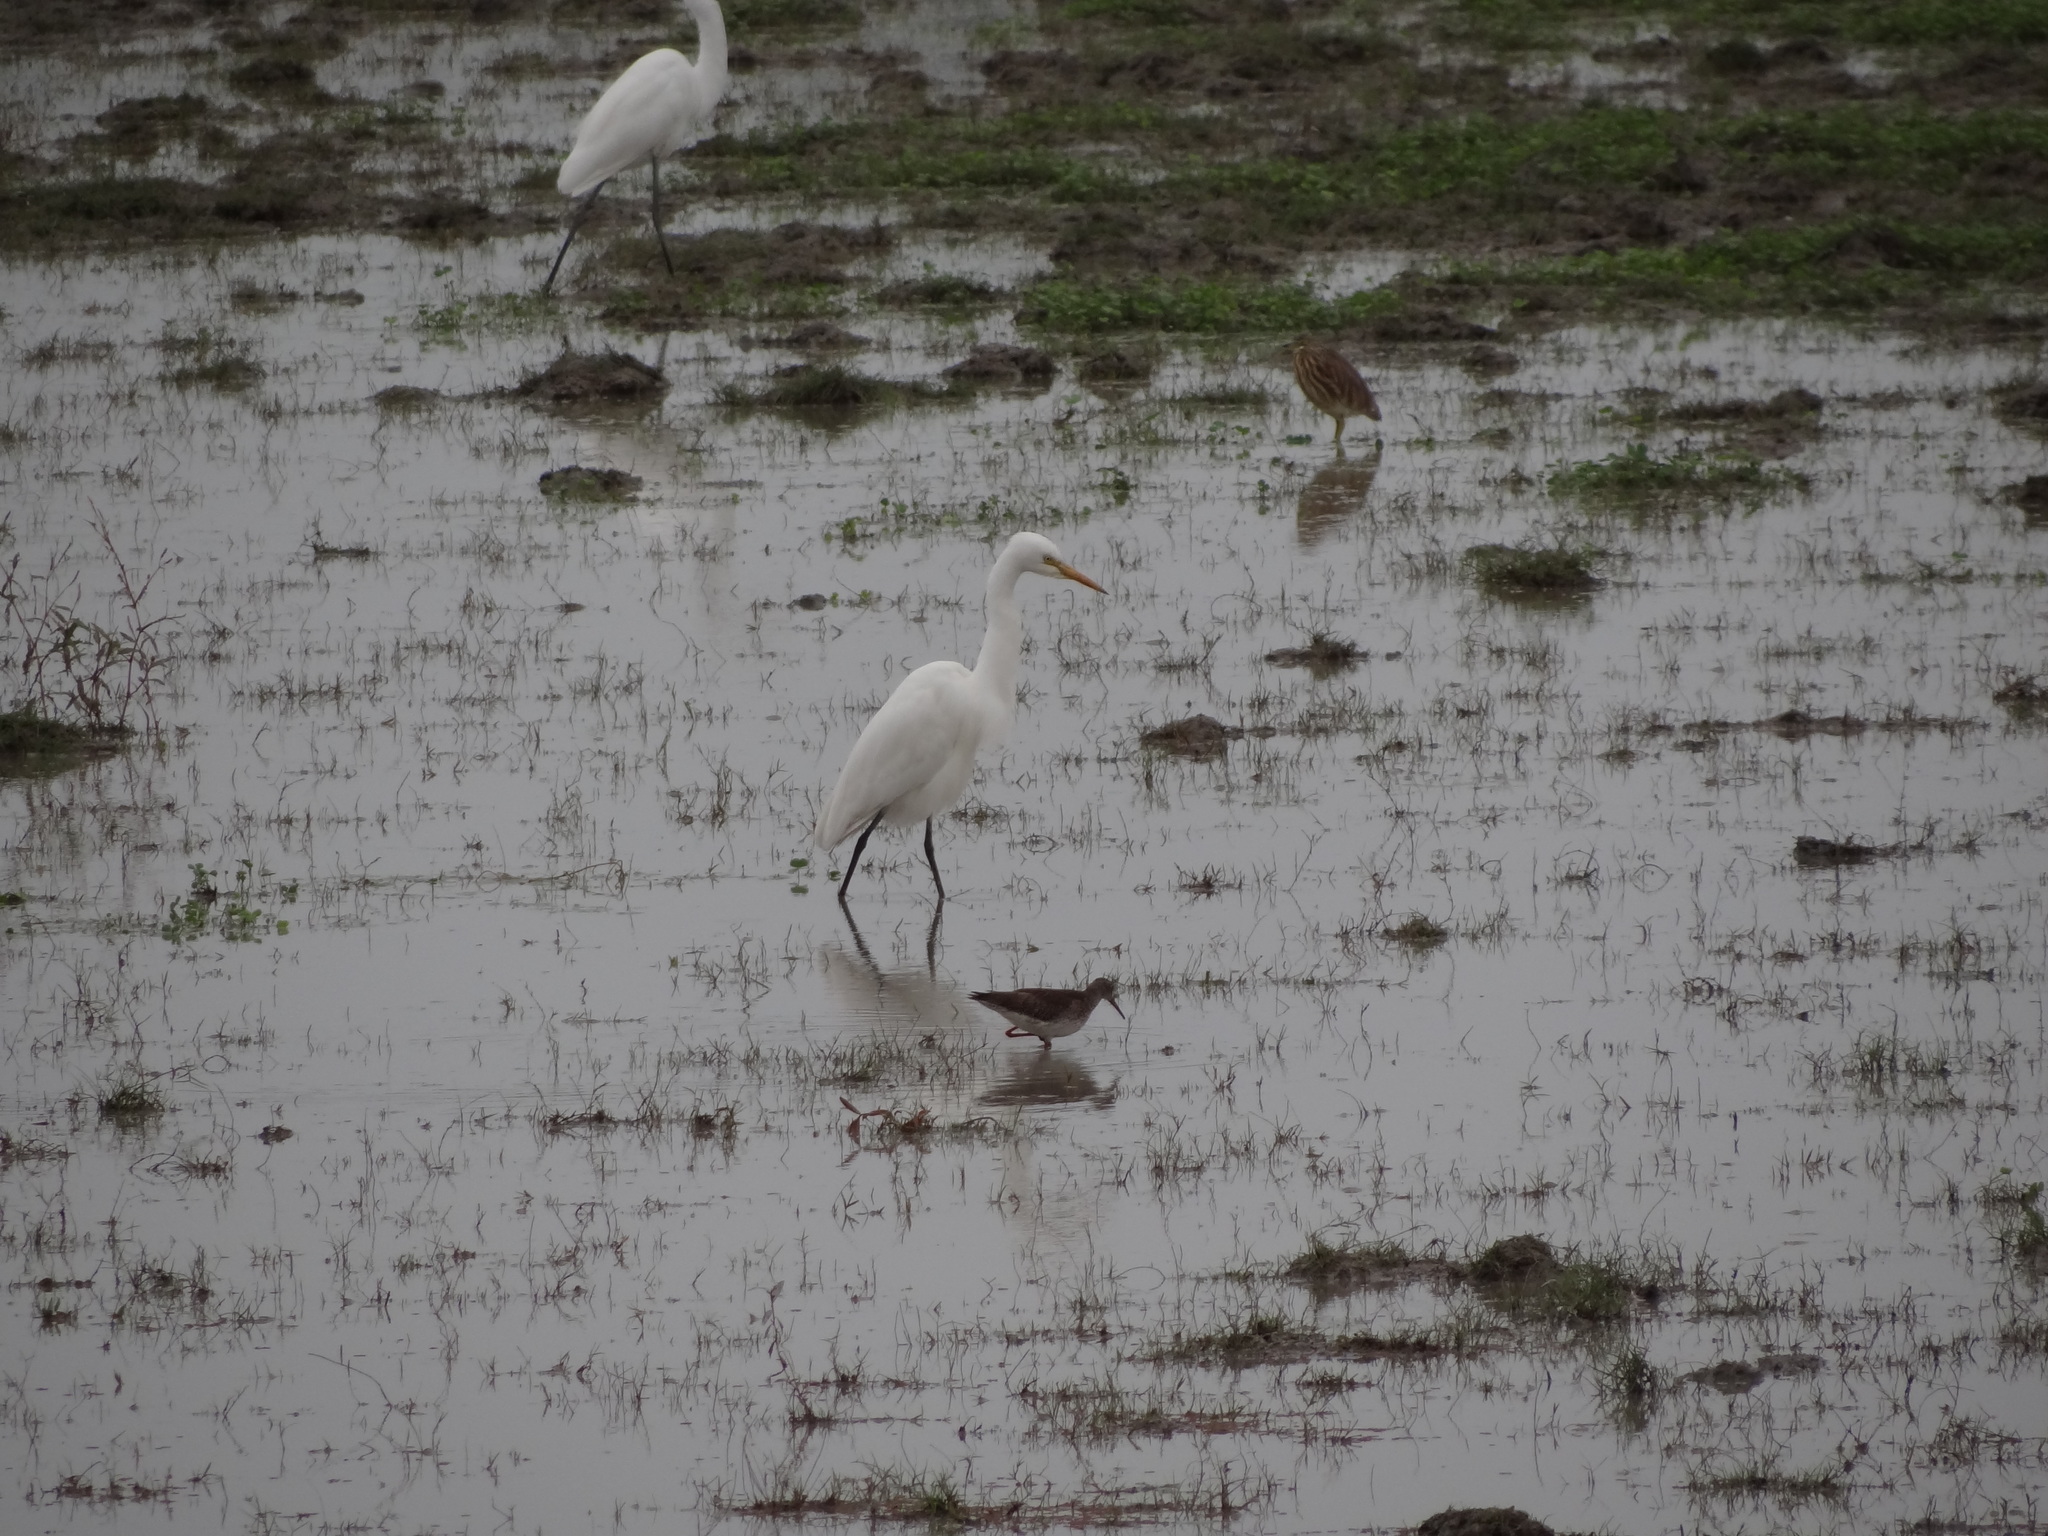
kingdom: Animalia
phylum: Chordata
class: Aves
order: Charadriiformes
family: Scolopacidae
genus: Tringa
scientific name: Tringa totanus
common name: Common redshank
